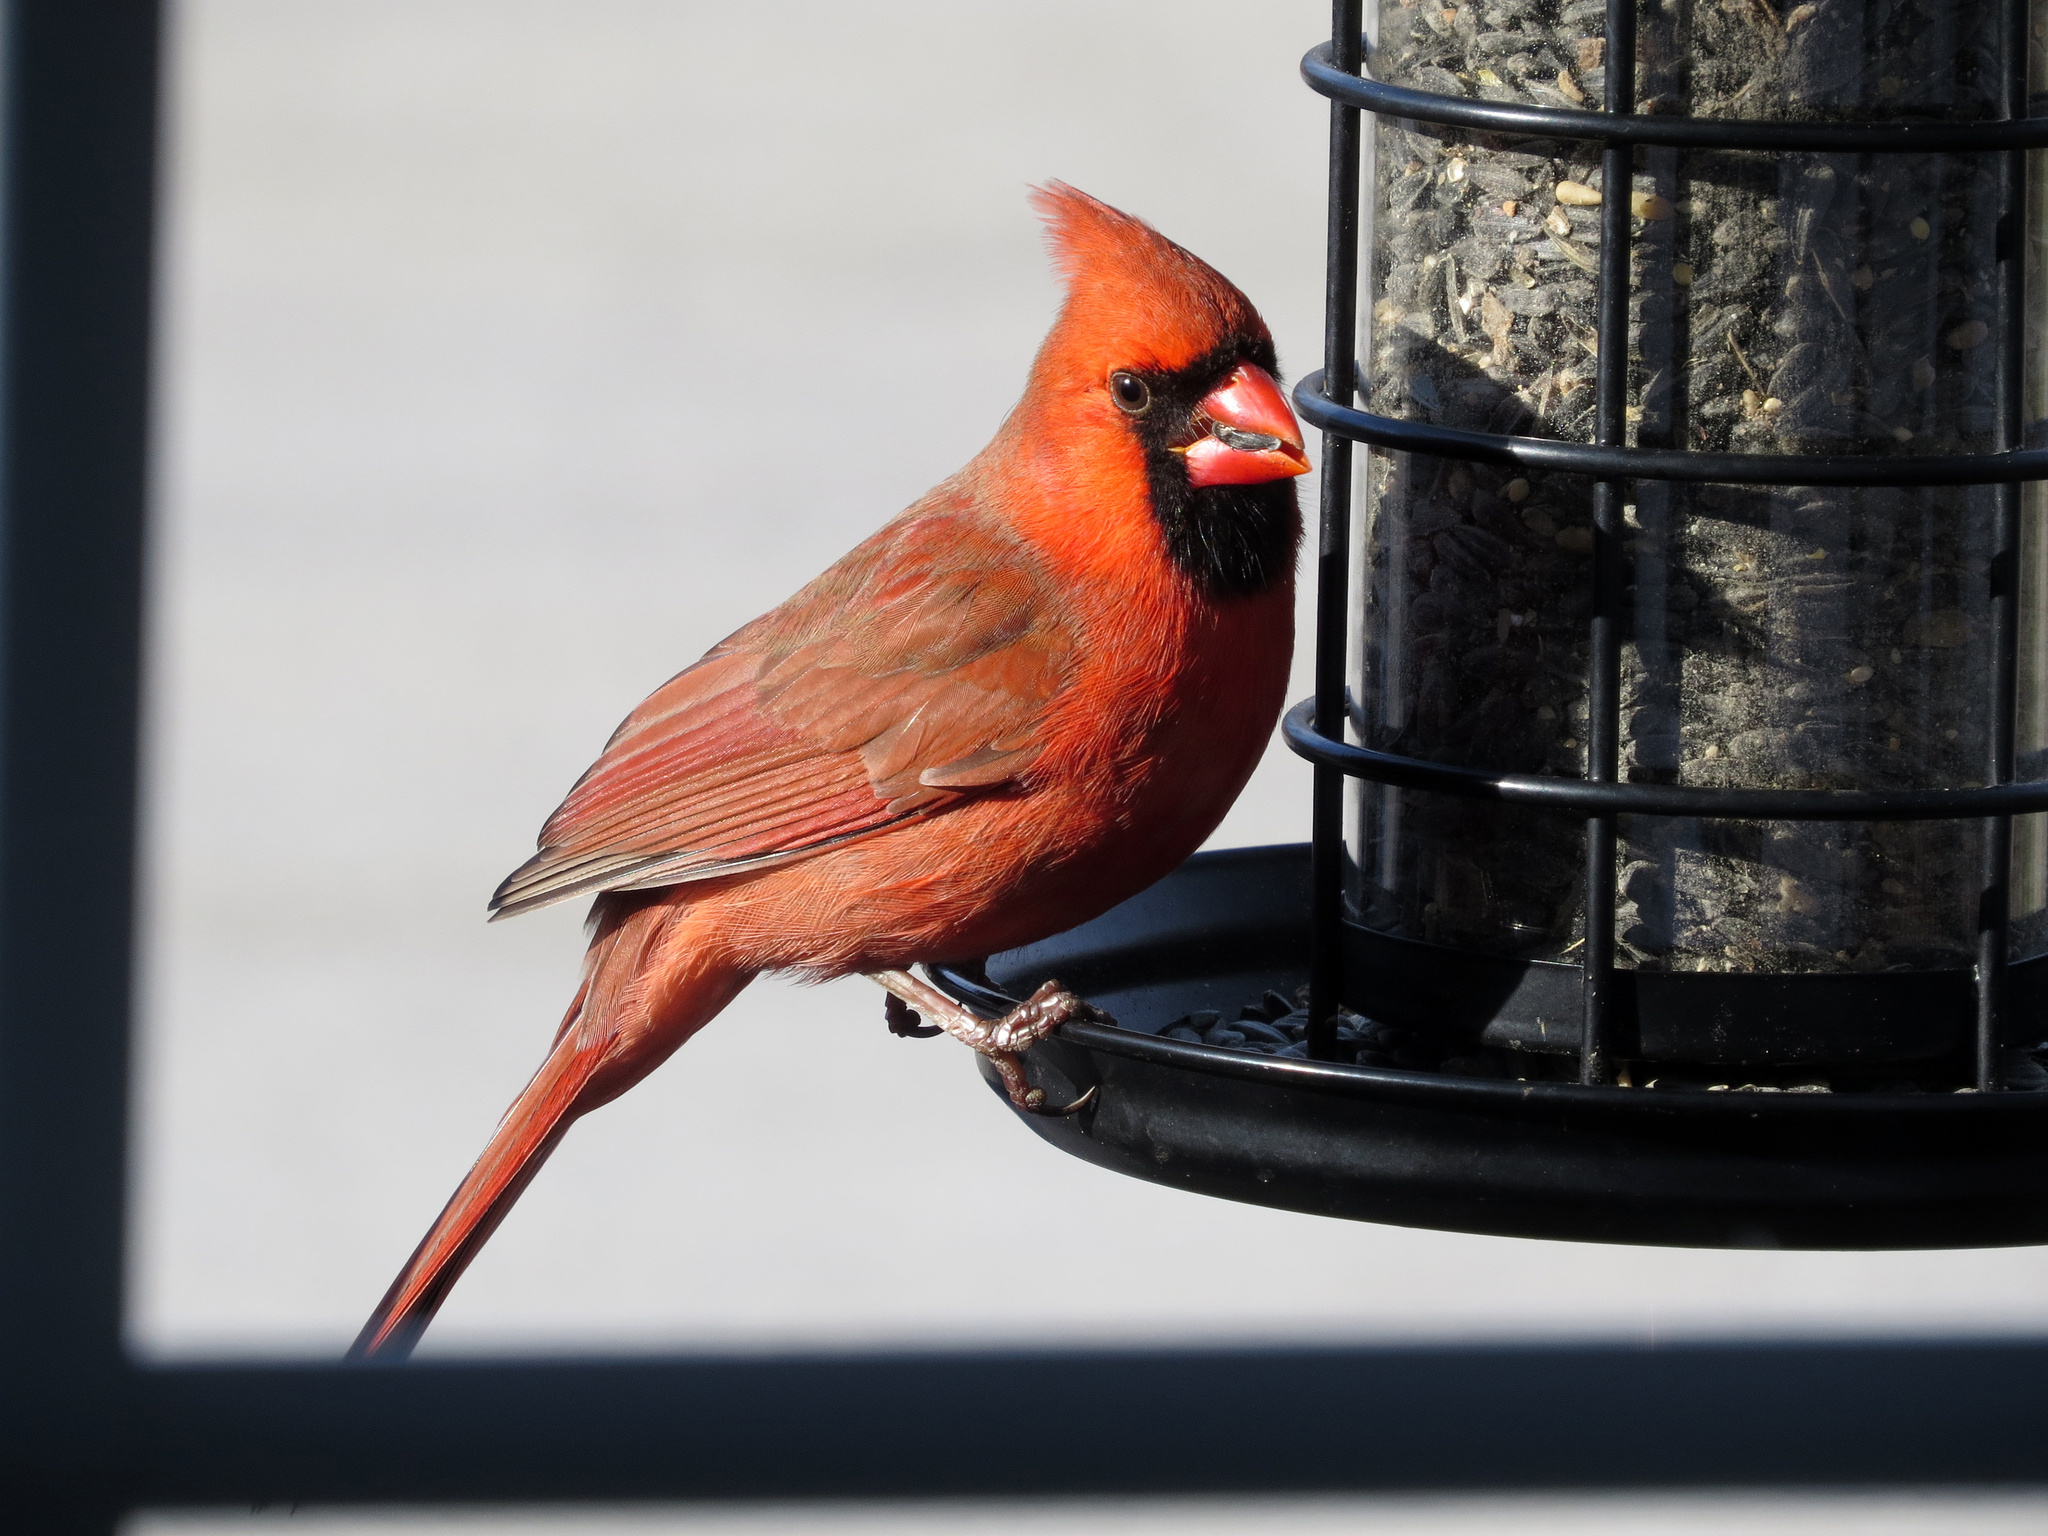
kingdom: Animalia
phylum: Chordata
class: Aves
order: Passeriformes
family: Cardinalidae
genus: Cardinalis
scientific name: Cardinalis cardinalis
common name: Northern cardinal
